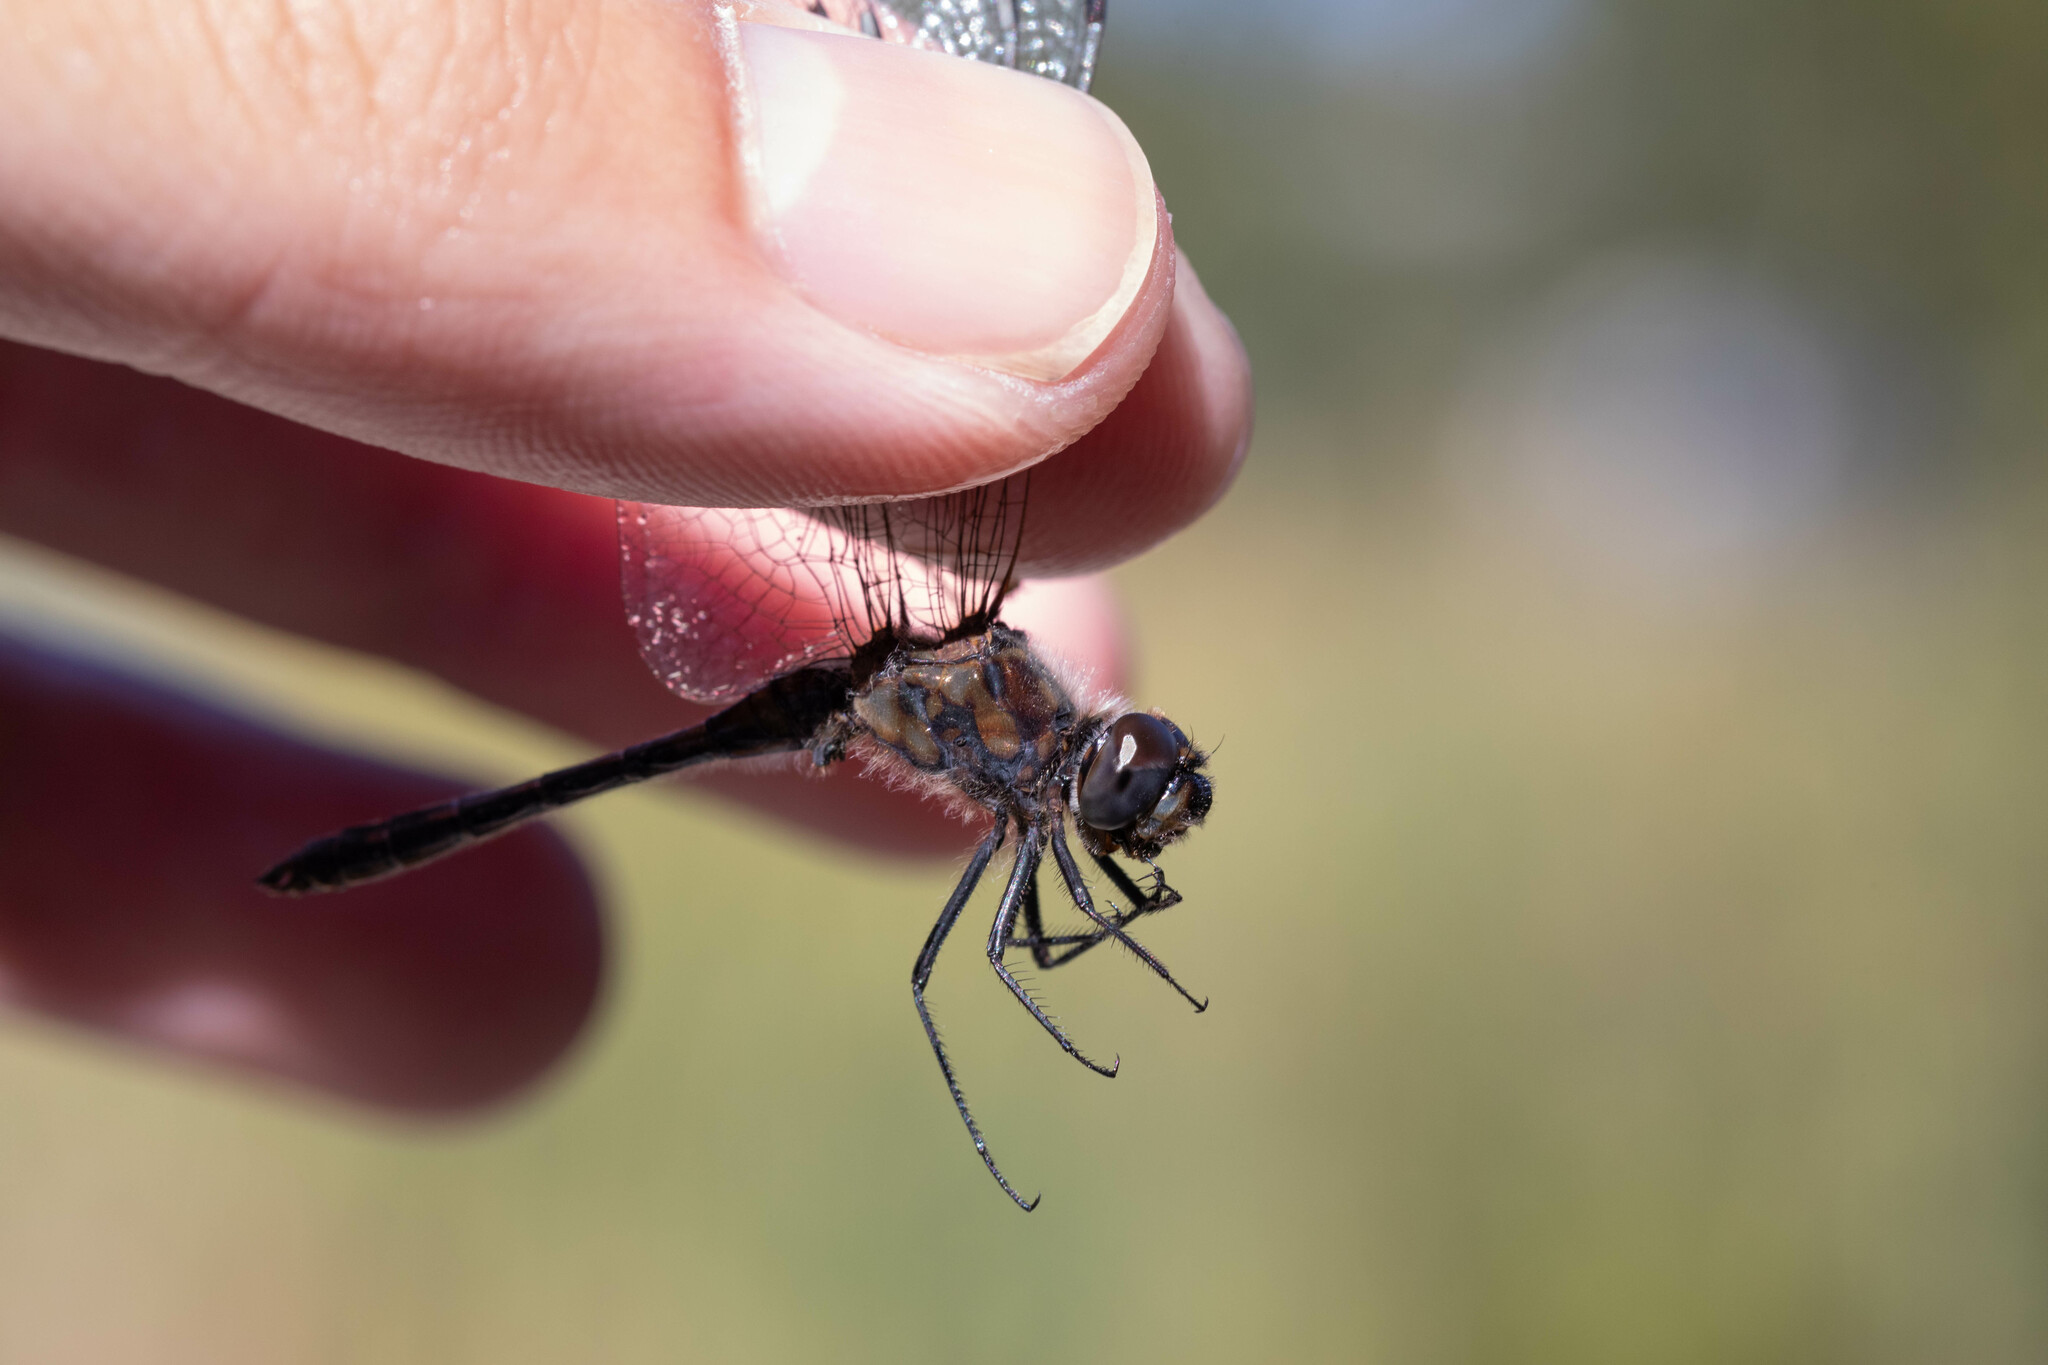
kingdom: Animalia
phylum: Arthropoda
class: Insecta
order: Odonata
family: Libellulidae
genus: Sympetrum
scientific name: Sympetrum danae
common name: Black darter
